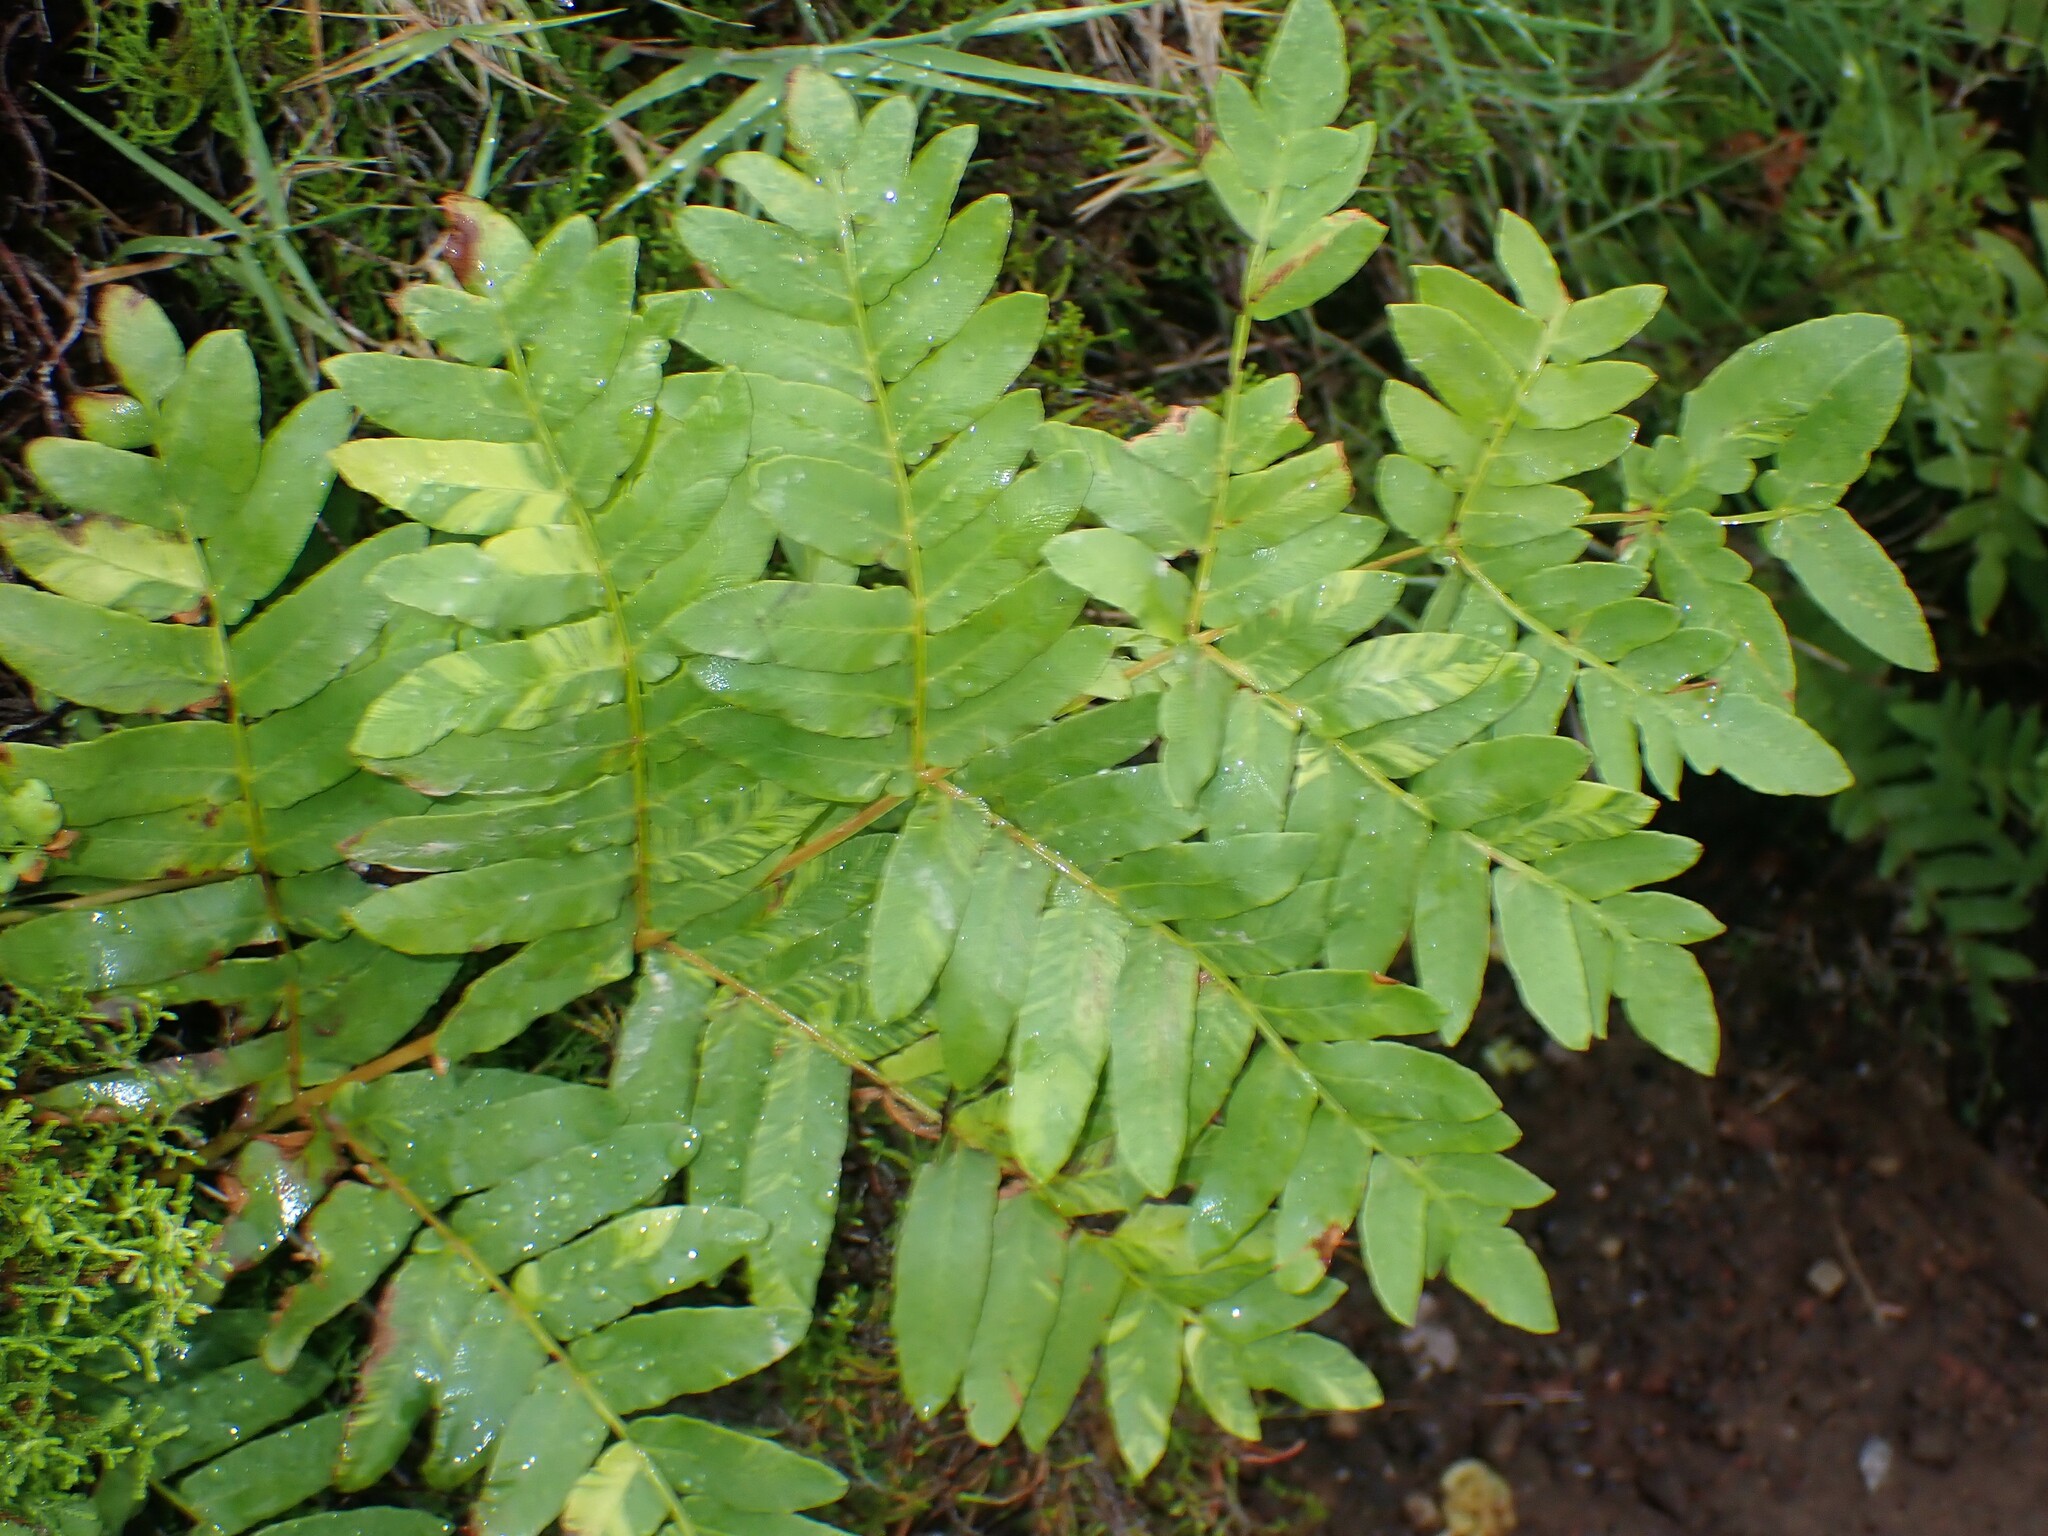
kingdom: Plantae
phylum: Tracheophyta
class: Polypodiopsida
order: Osmundales
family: Osmundaceae
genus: Osmunda
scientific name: Osmunda regalis
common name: Royal fern
